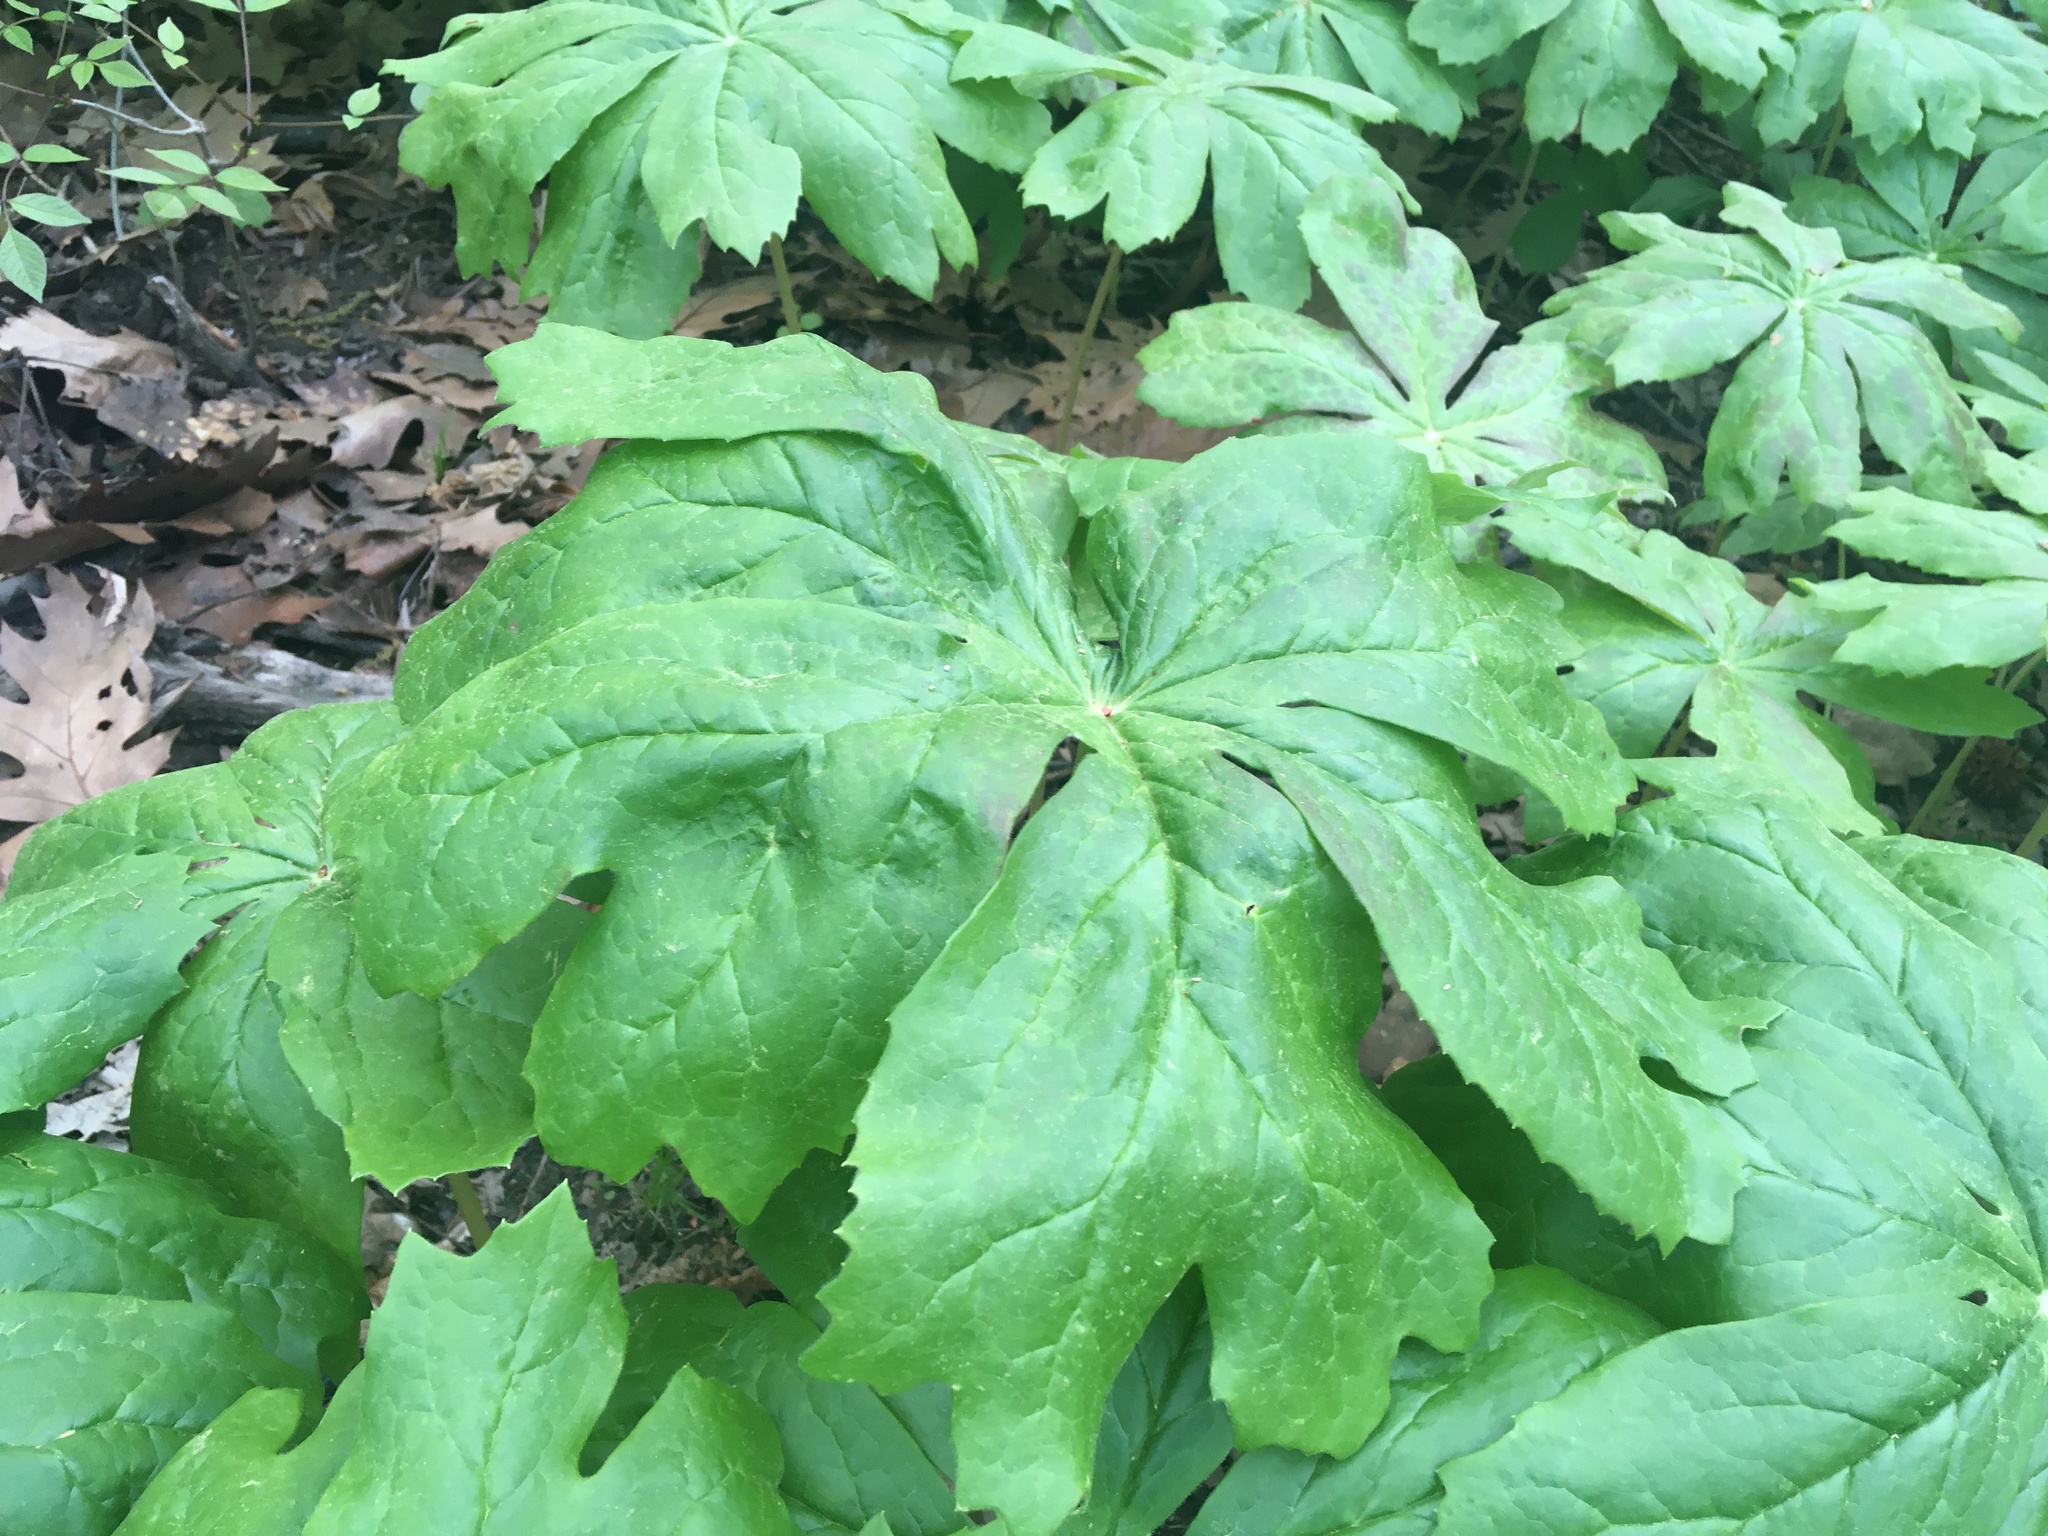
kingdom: Plantae
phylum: Tracheophyta
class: Magnoliopsida
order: Ranunculales
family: Berberidaceae
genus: Podophyllum
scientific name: Podophyllum peltatum
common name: Wild mandrake
